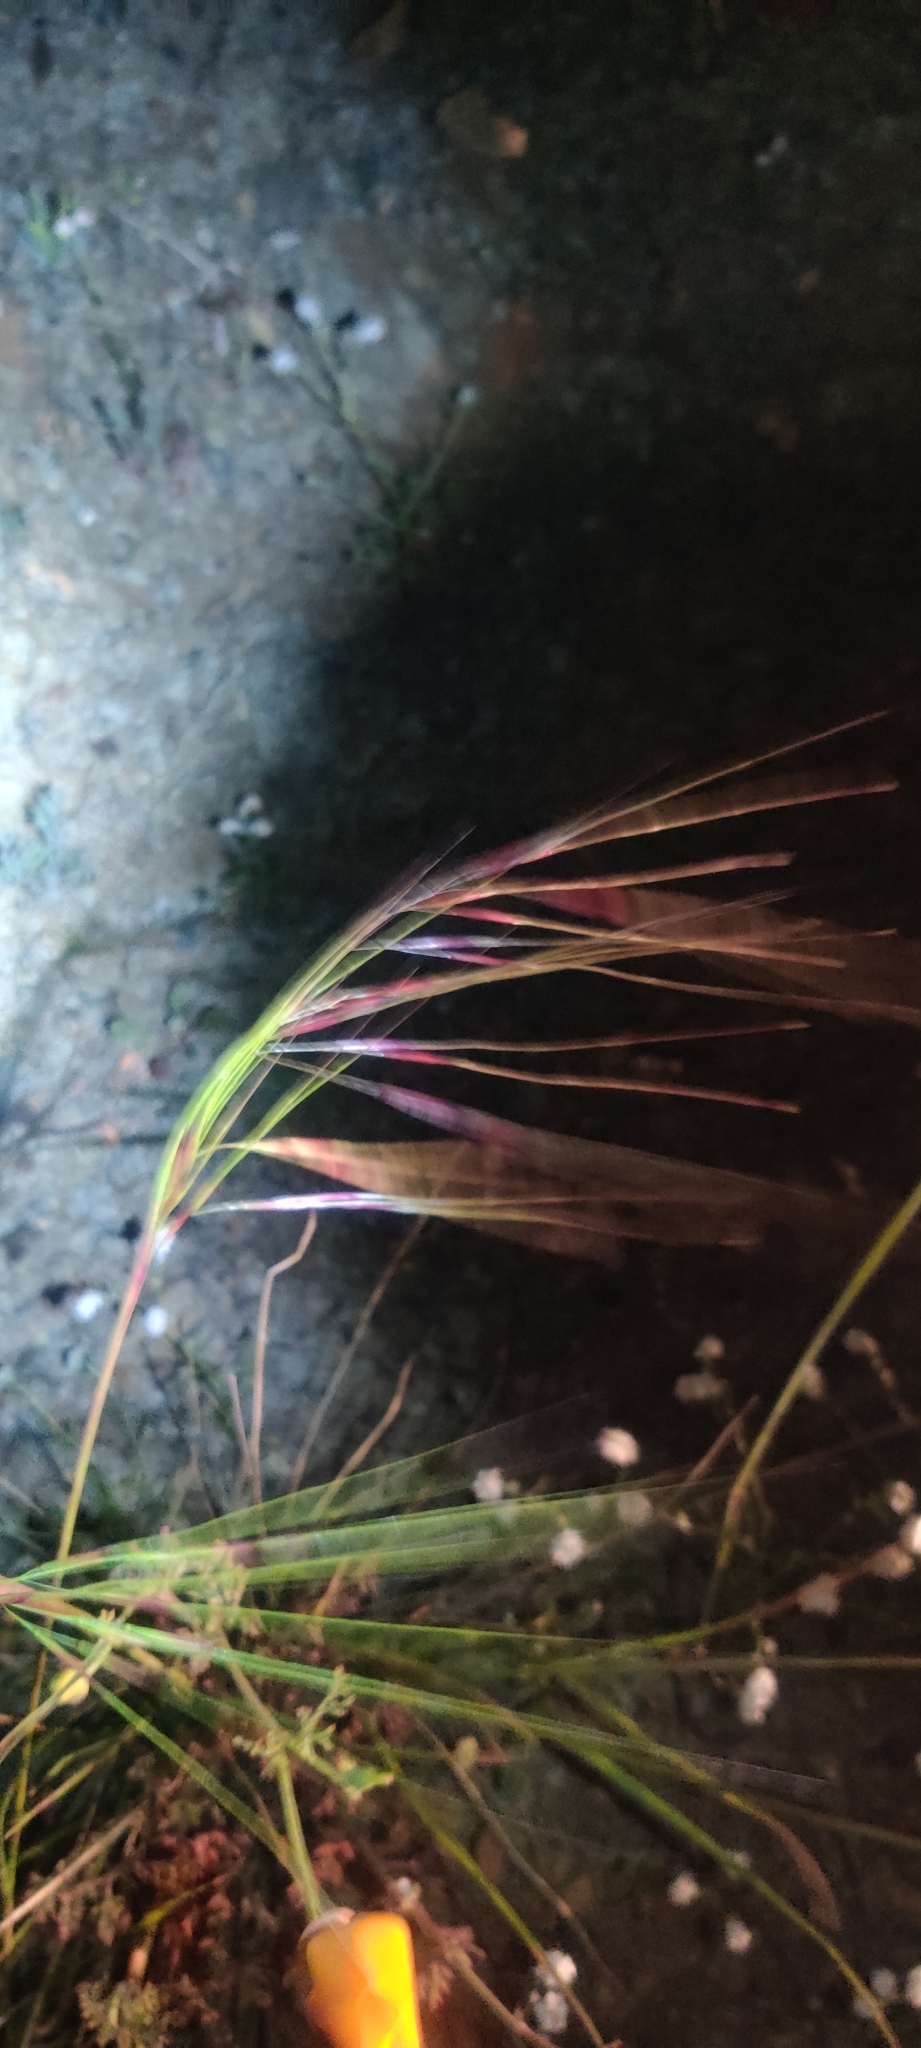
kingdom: Plantae
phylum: Tracheophyta
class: Liliopsida
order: Poales
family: Poaceae
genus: Nassella
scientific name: Nassella pulchra
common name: Purple needlegrass
